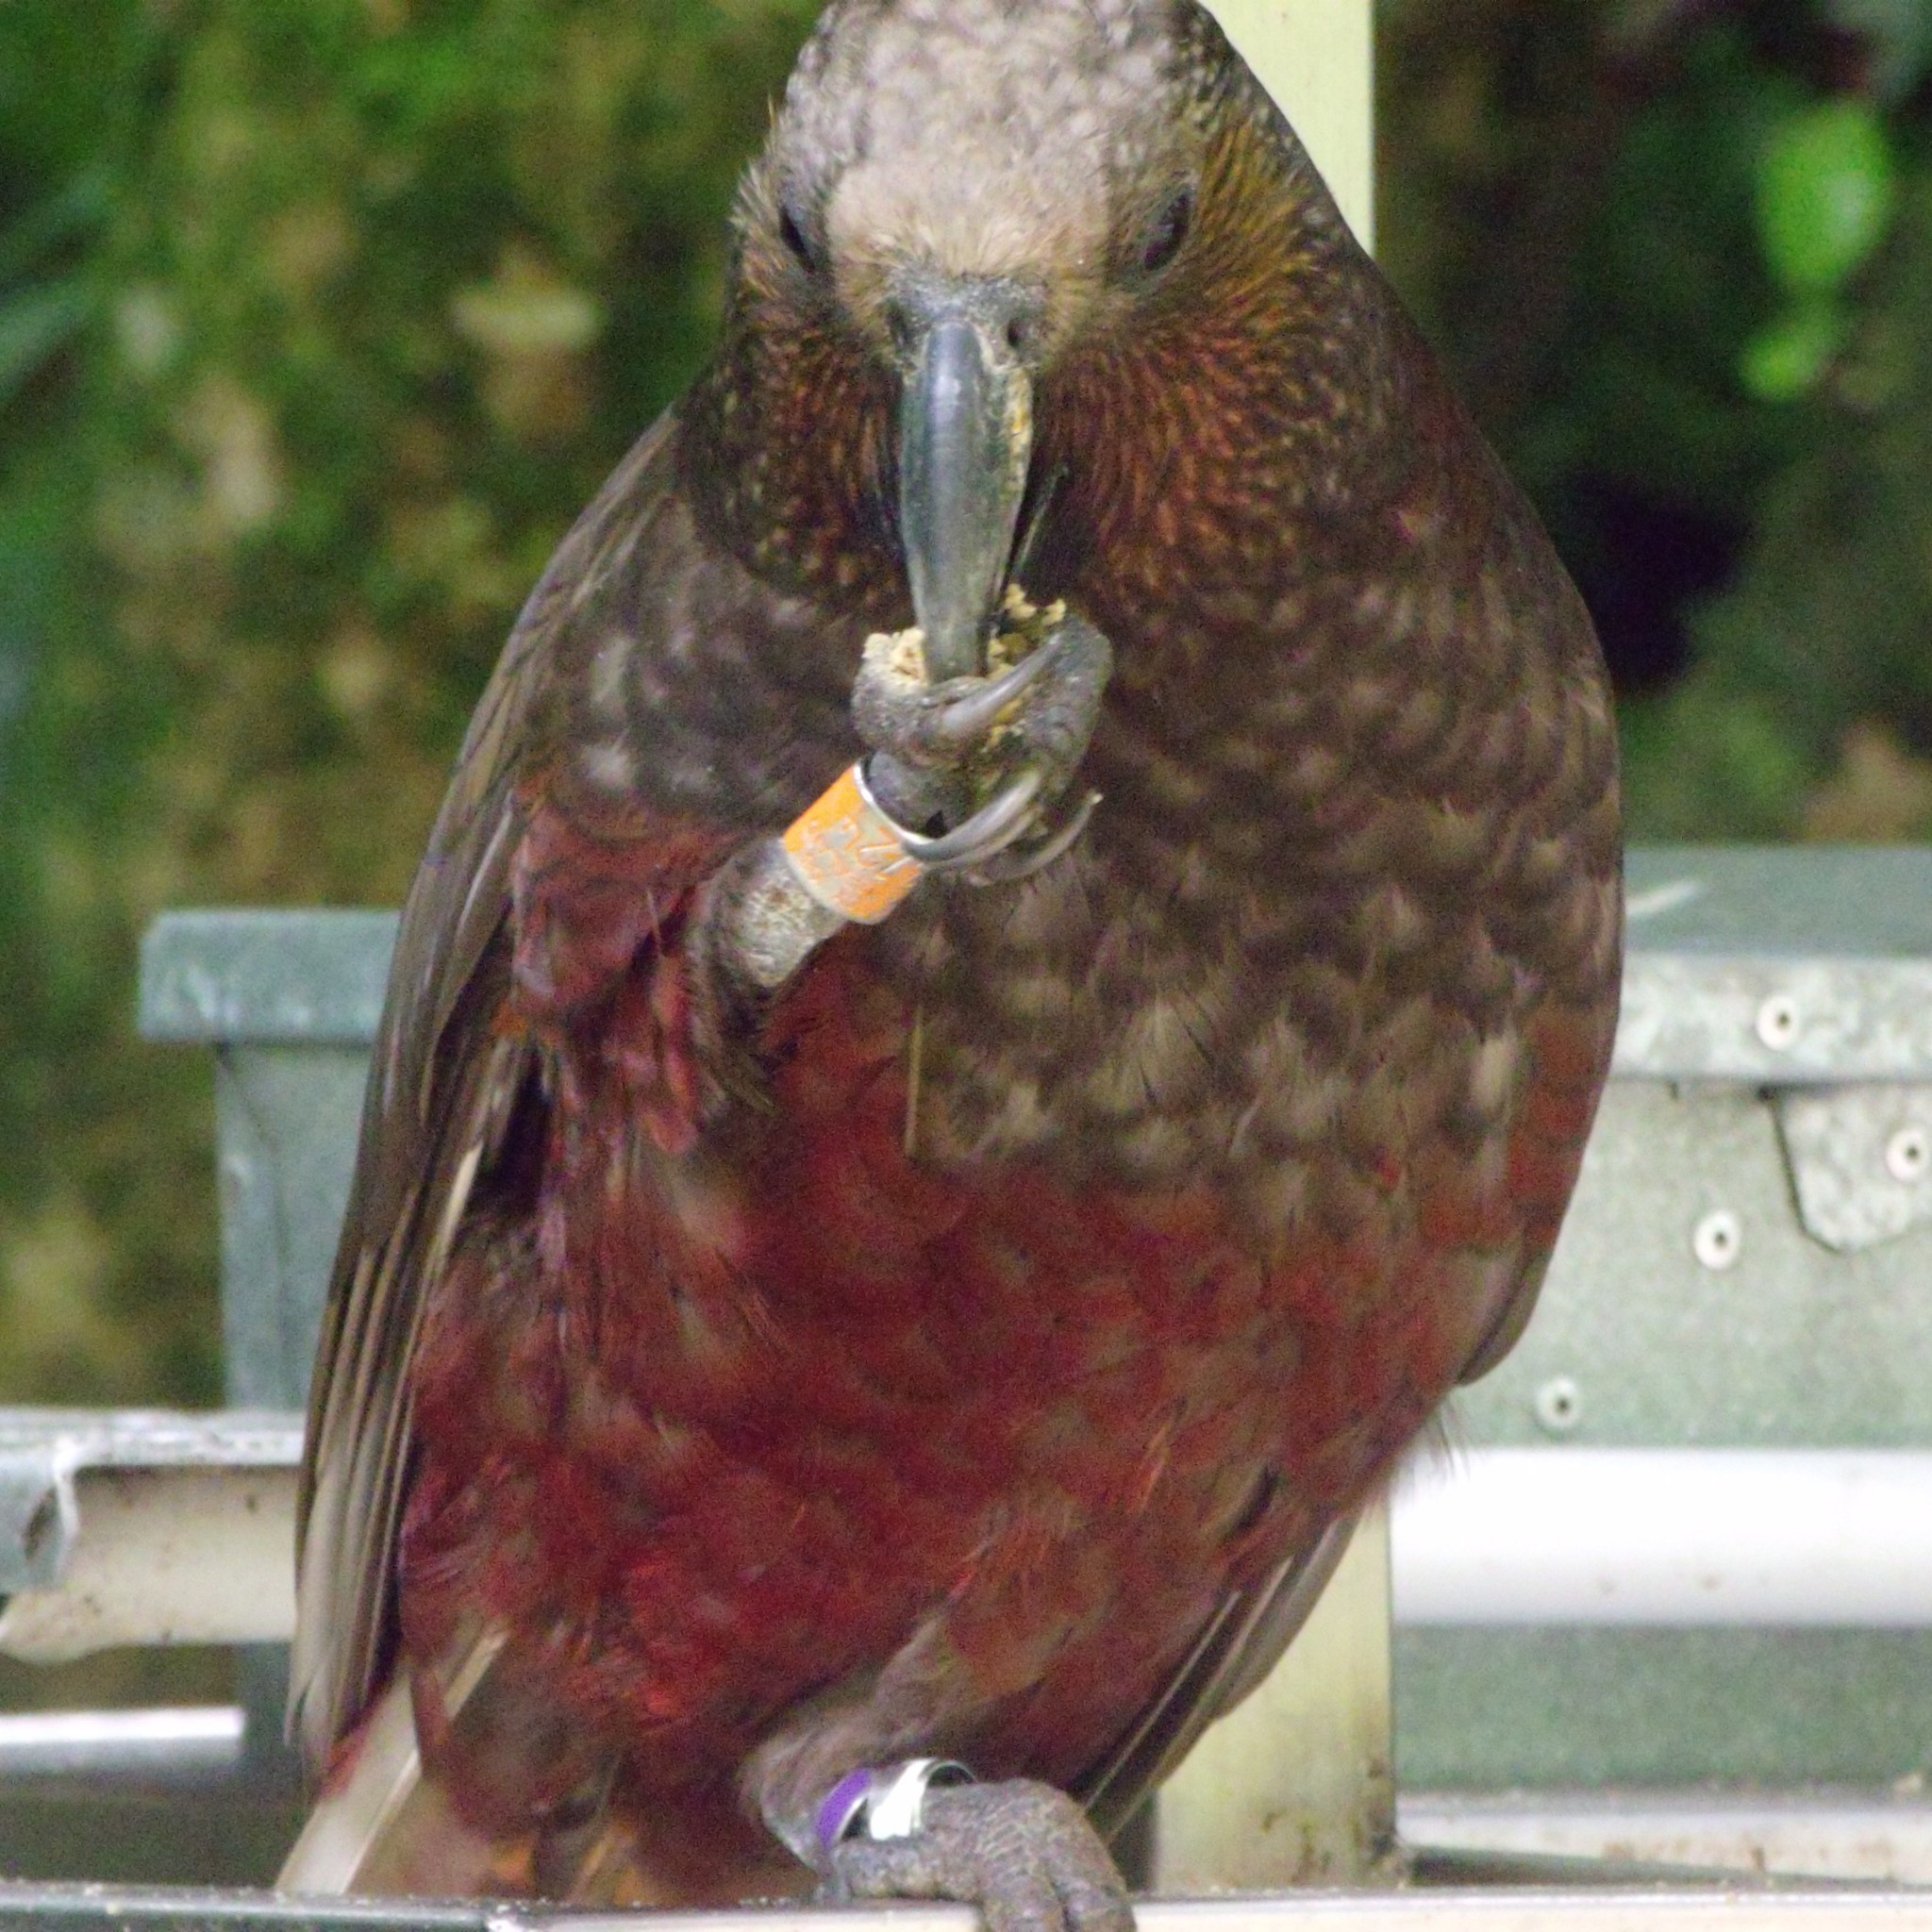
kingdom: Animalia
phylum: Chordata
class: Aves
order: Psittaciformes
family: Psittacidae
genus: Nestor
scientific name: Nestor meridionalis
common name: New zealand kaka
